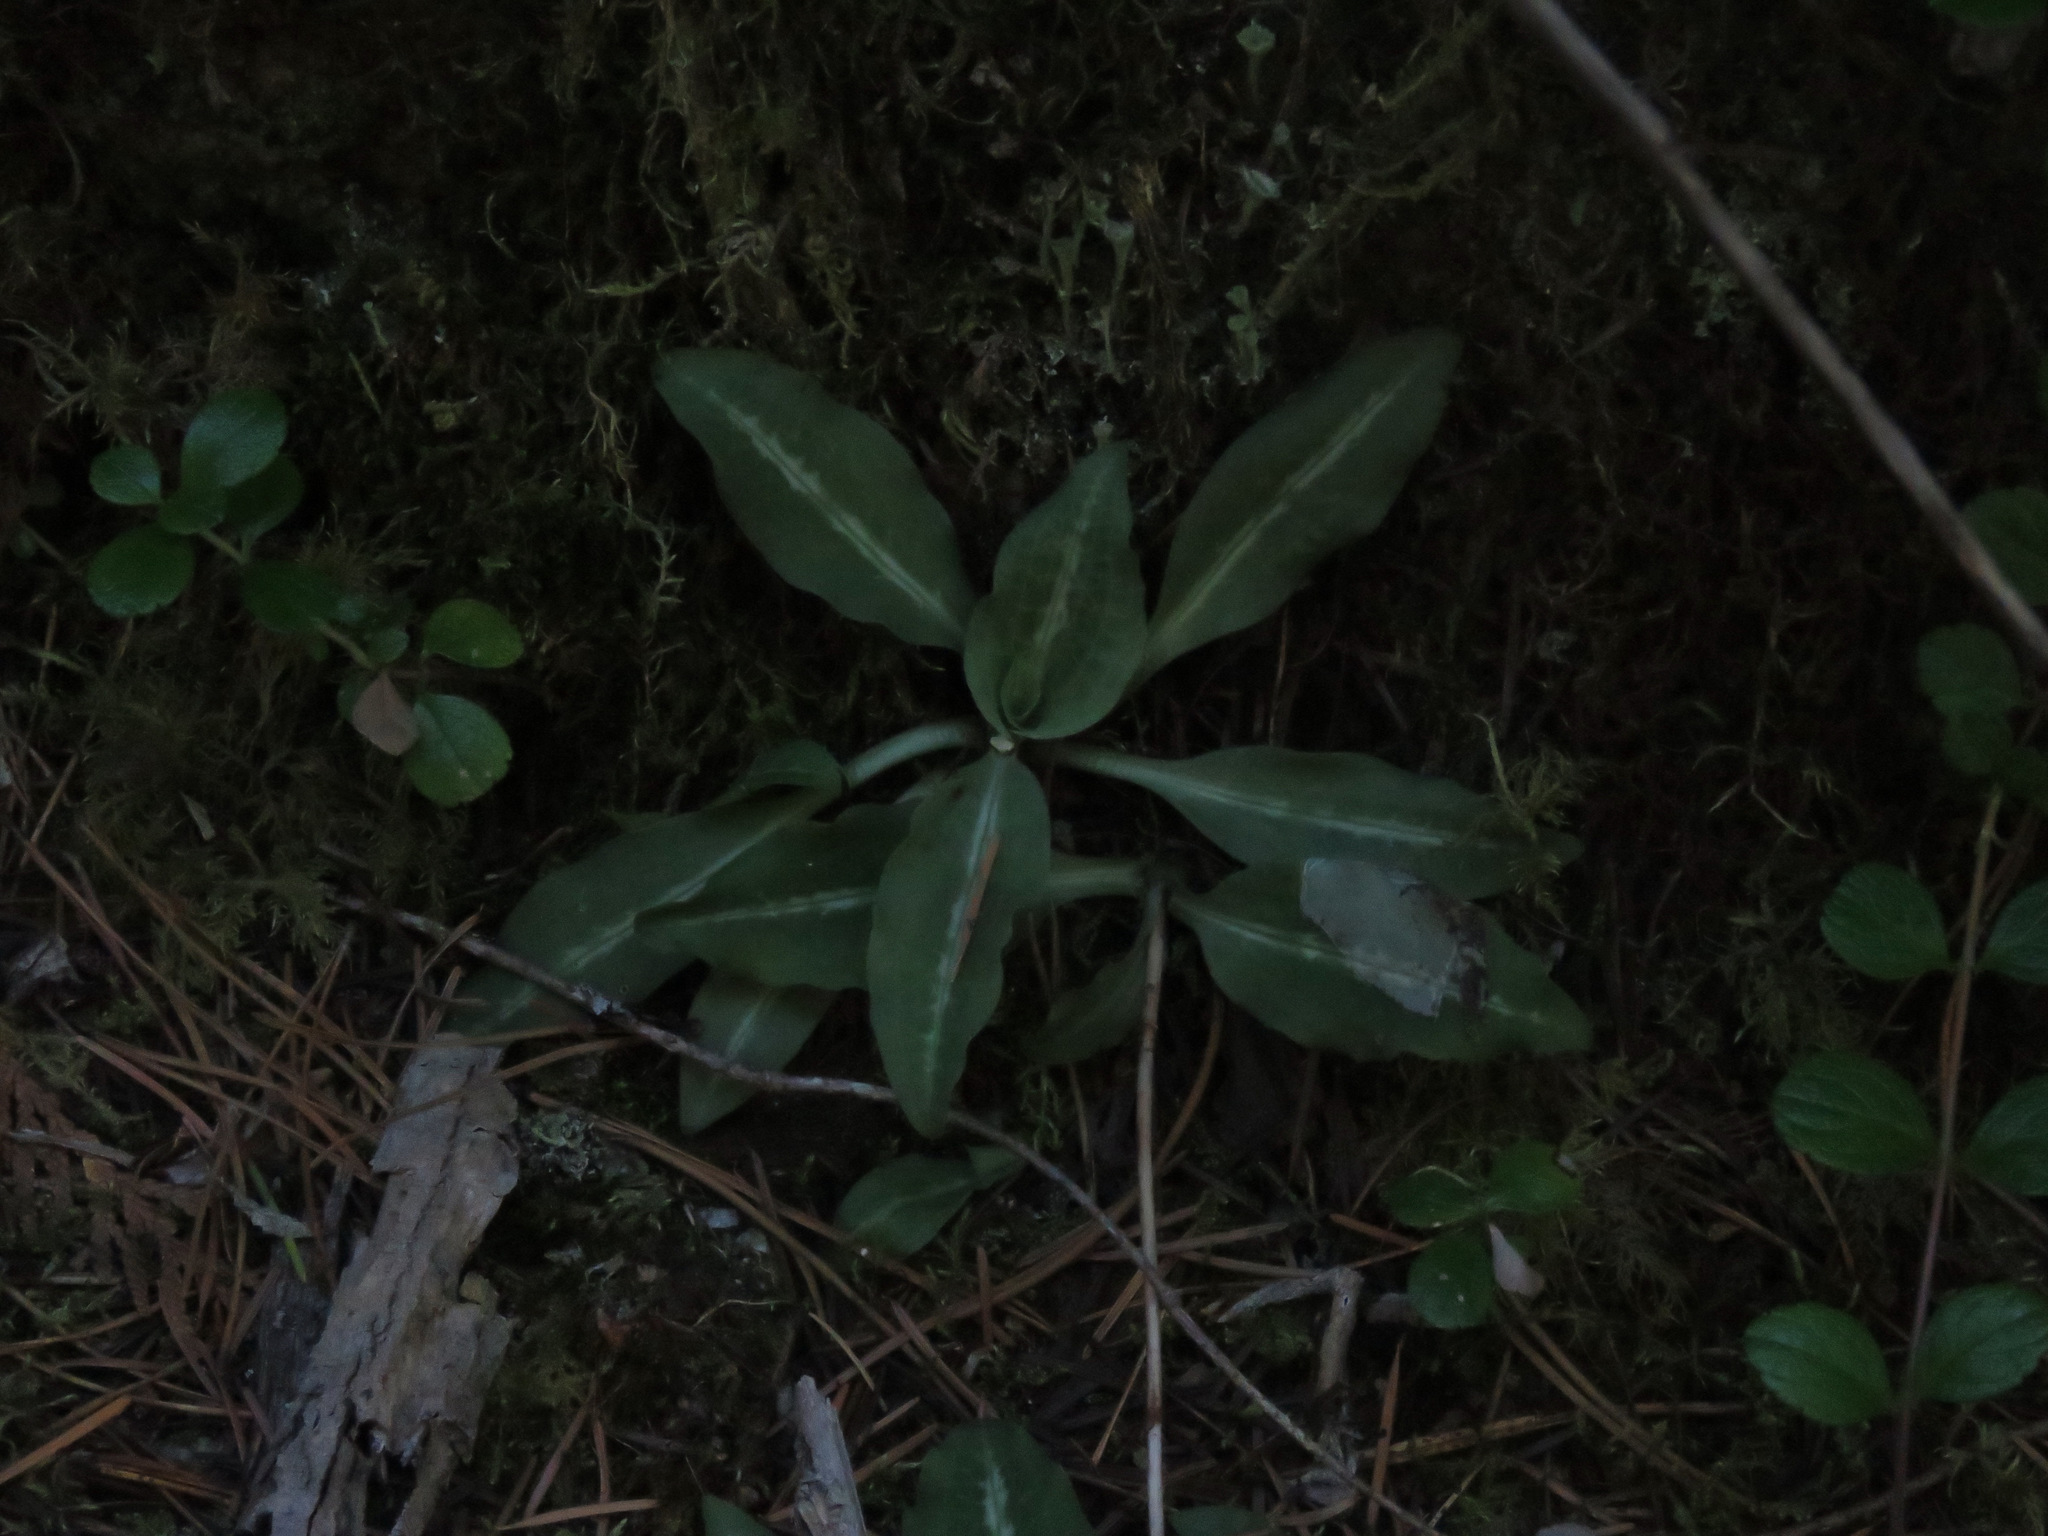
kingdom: Plantae
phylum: Tracheophyta
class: Liliopsida
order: Asparagales
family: Orchidaceae
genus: Goodyera
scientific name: Goodyera oblongifolia
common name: Giant rattlesnake-plantain
